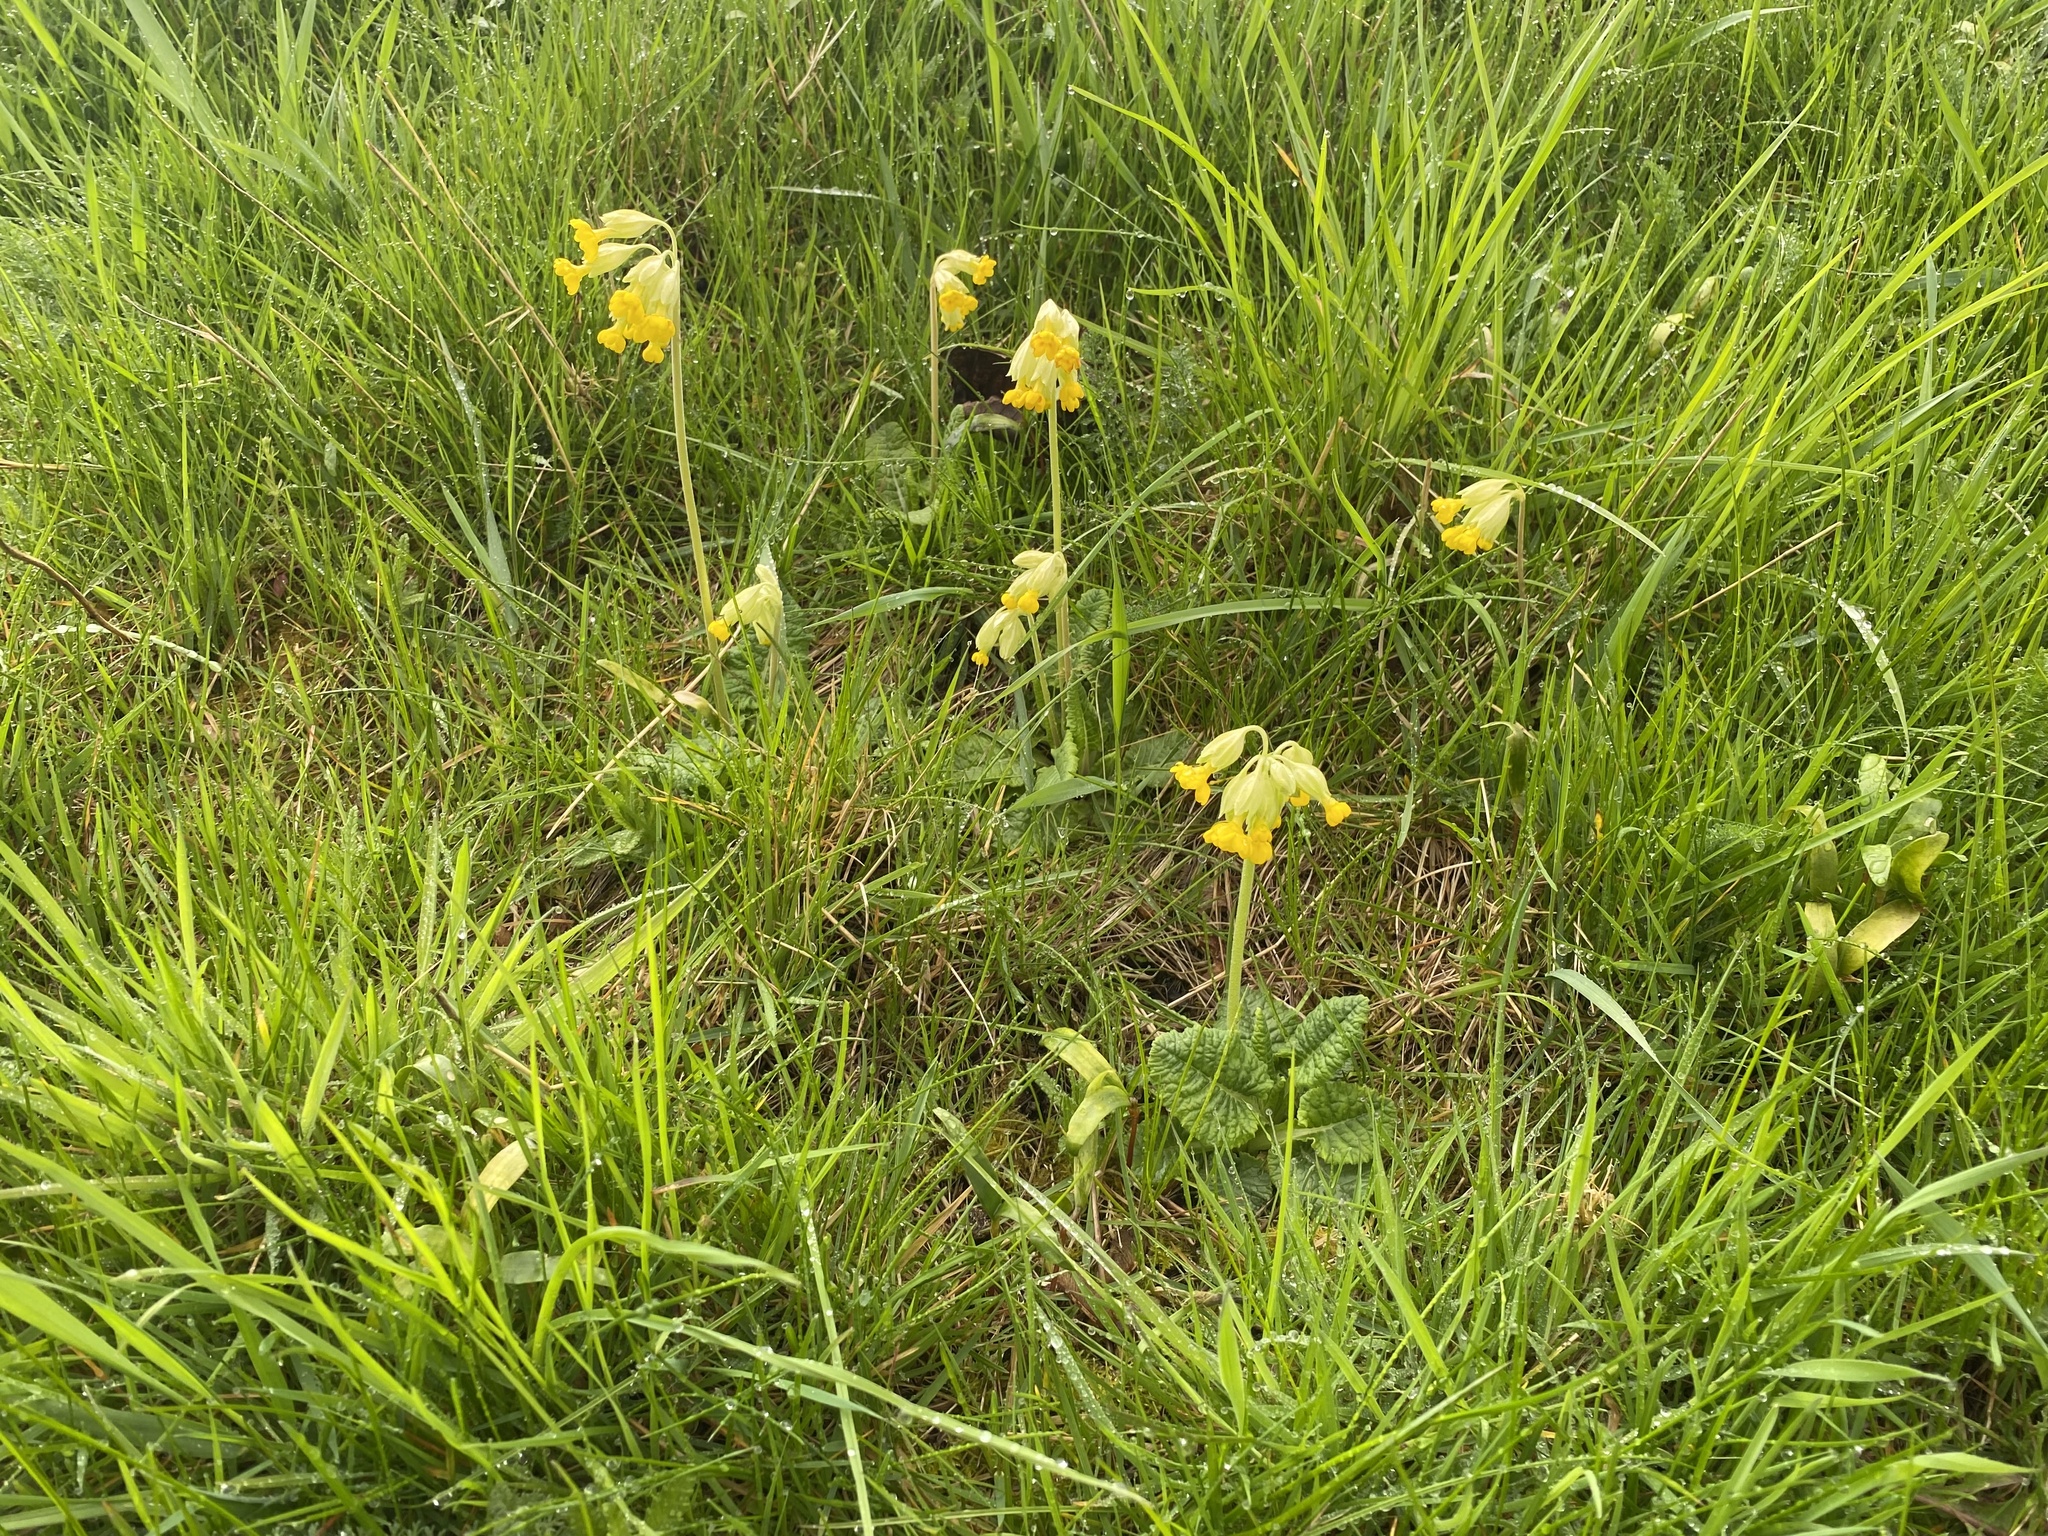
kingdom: Plantae
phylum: Tracheophyta
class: Magnoliopsida
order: Ericales
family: Primulaceae
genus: Primula
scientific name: Primula veris
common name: Cowslip
